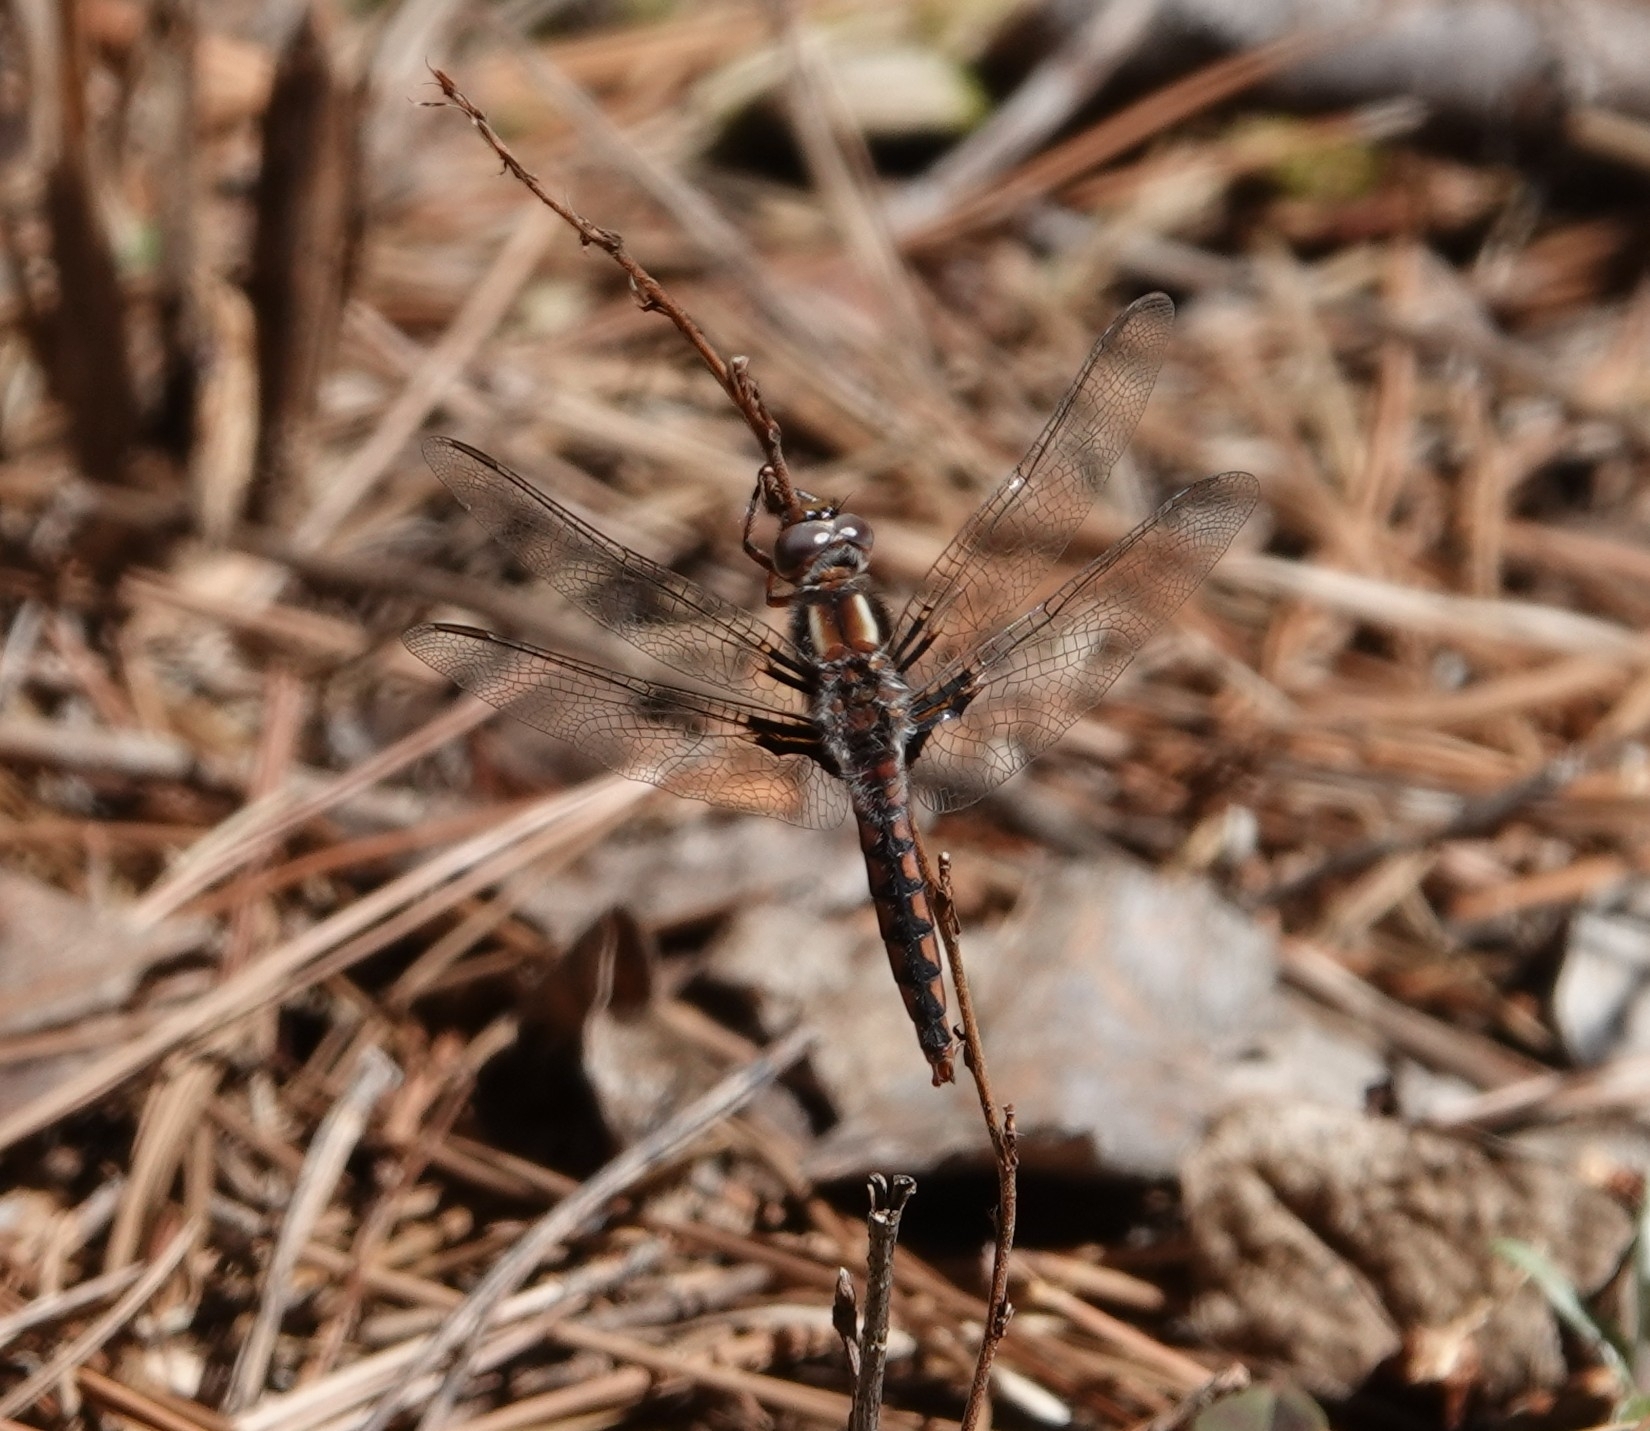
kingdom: Animalia
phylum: Arthropoda
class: Insecta
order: Odonata
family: Libellulidae
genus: Ladona
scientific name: Ladona deplanata
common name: Blue corporal
